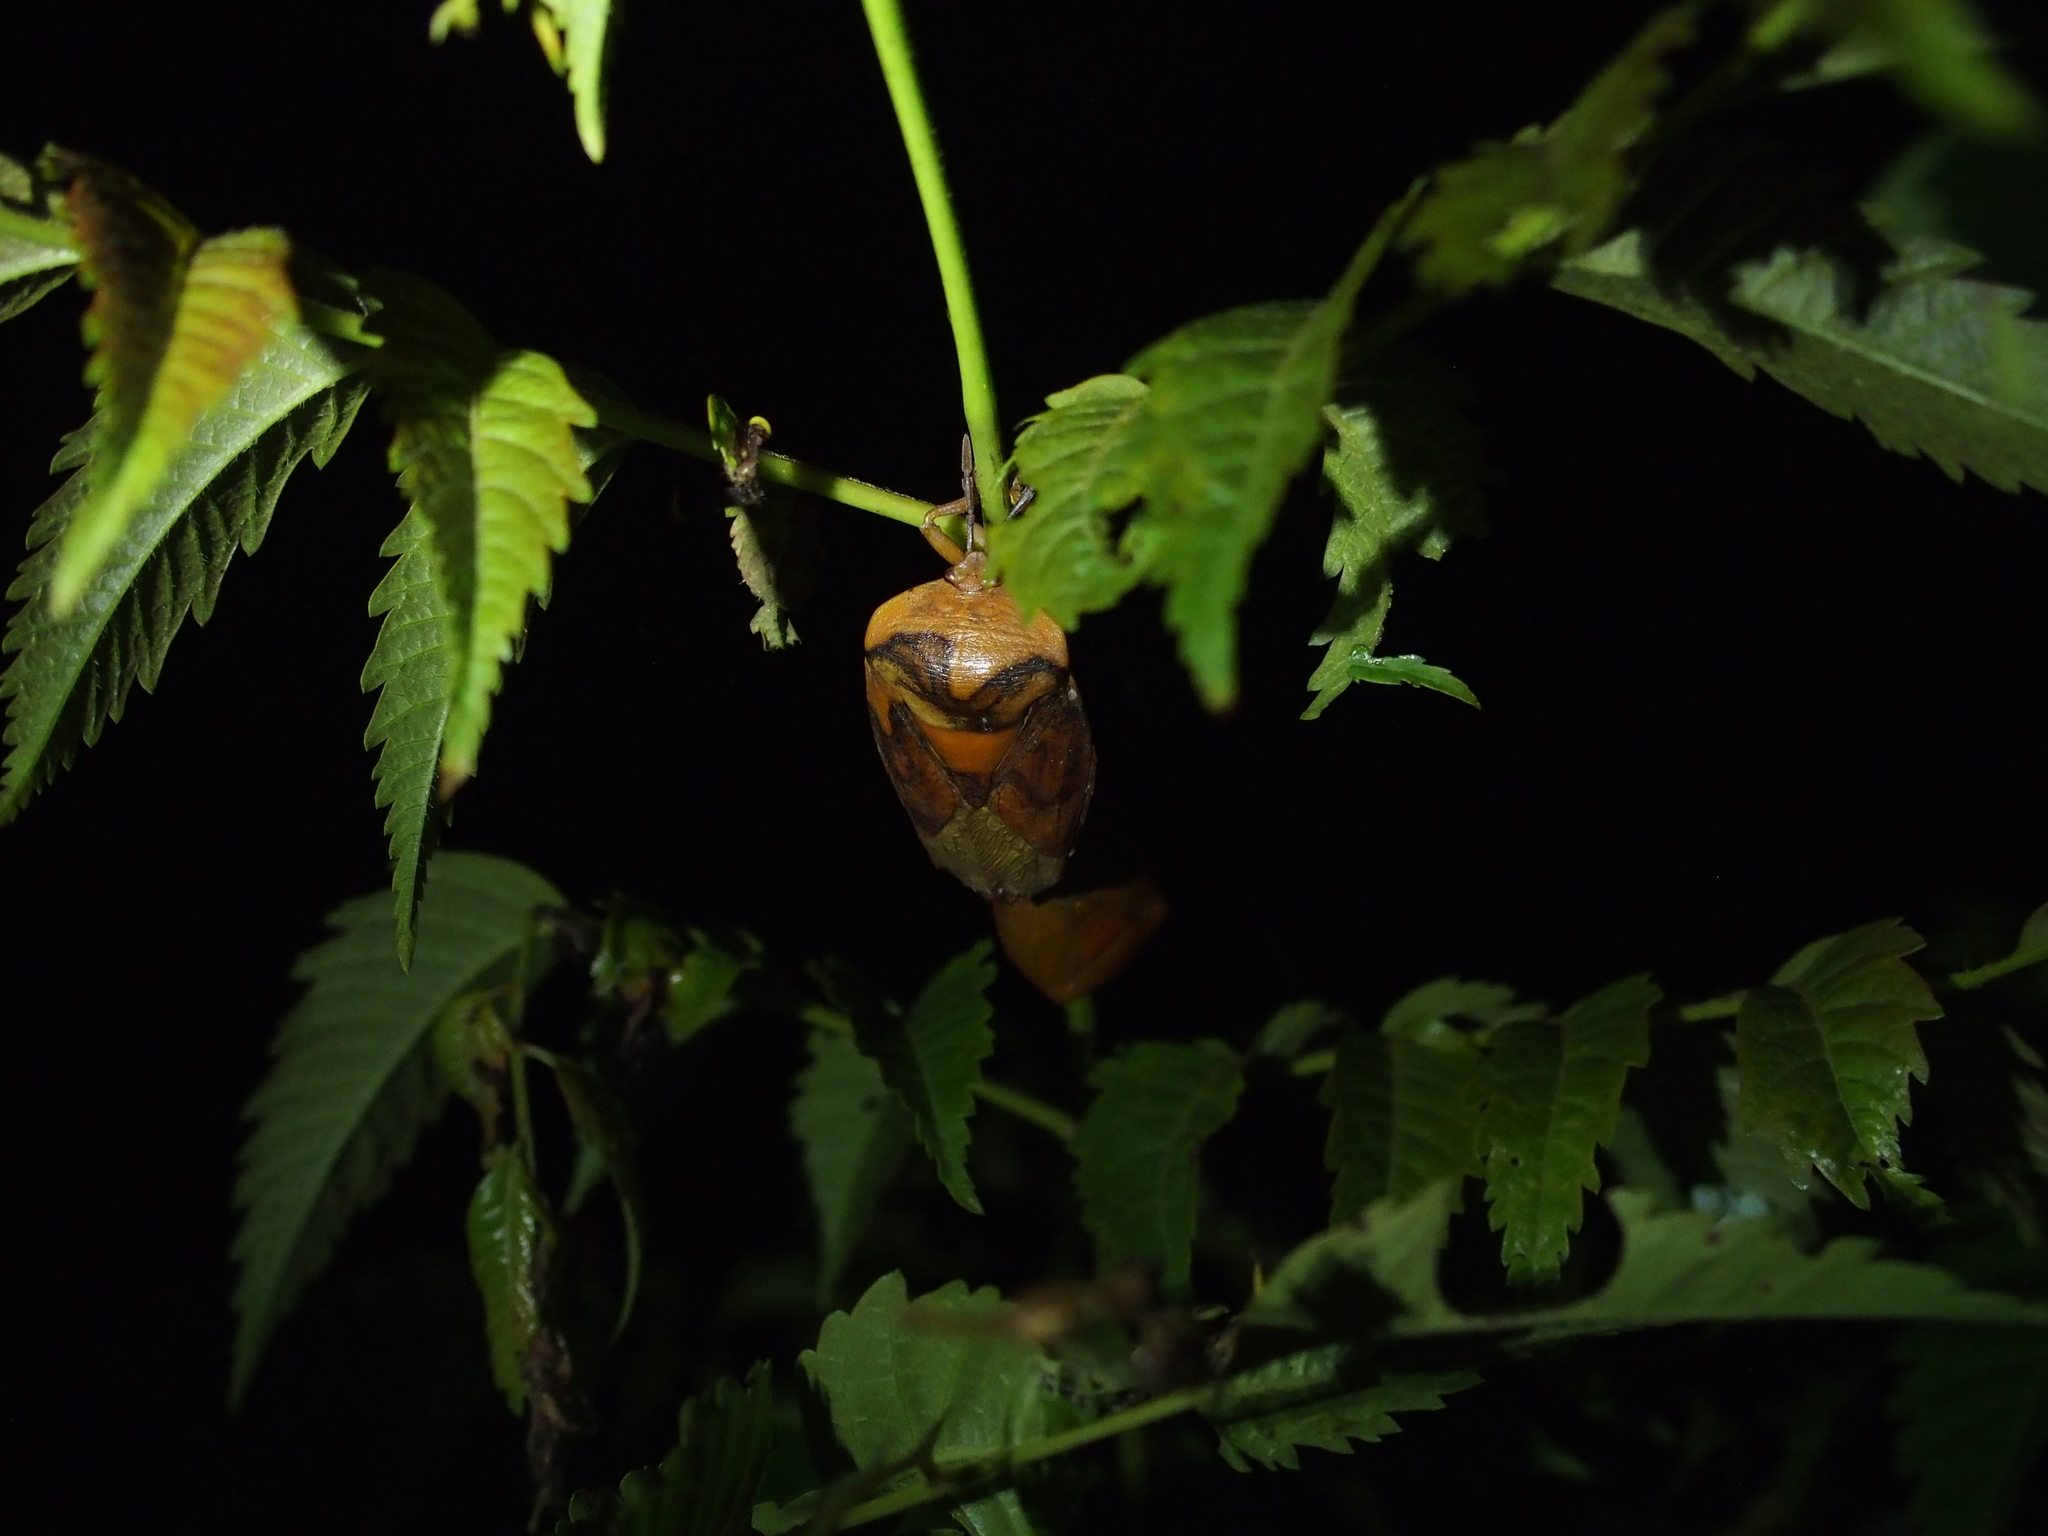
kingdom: Animalia
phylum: Arthropoda
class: Insecta
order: Hemiptera
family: Tessaratomidae
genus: Tessaratoma
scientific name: Tessaratoma papillosa
